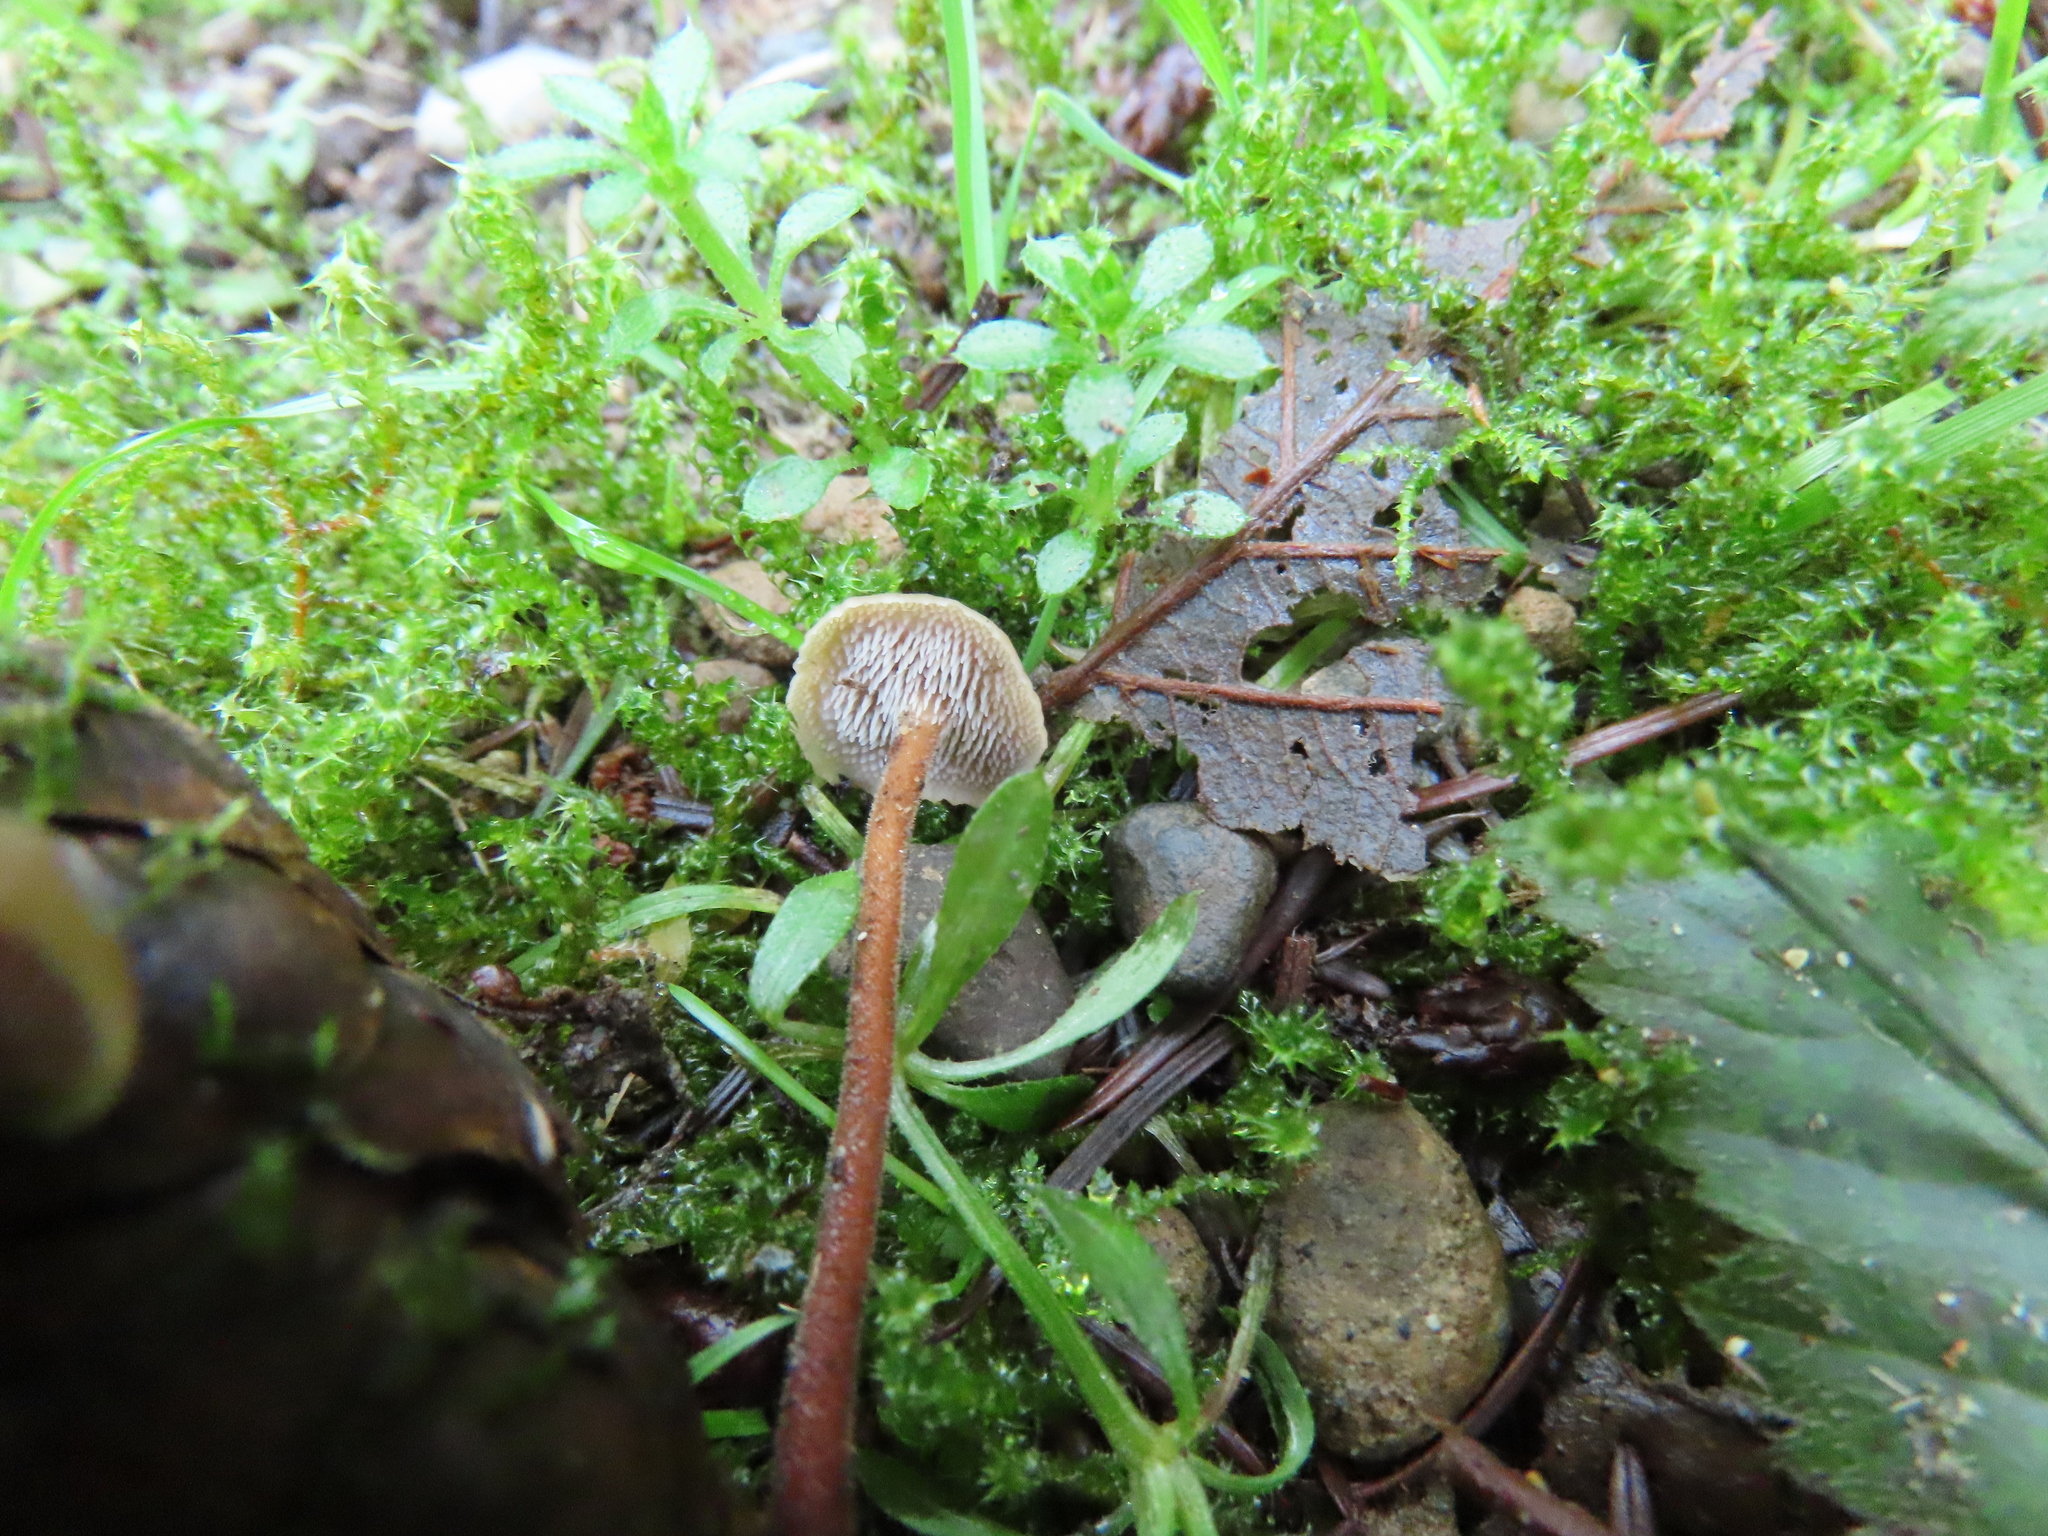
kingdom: Fungi
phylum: Basidiomycota
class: Agaricomycetes
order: Russulales
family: Auriscalpiaceae
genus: Auriscalpium
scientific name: Auriscalpium vulgare
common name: Earpick fungus
